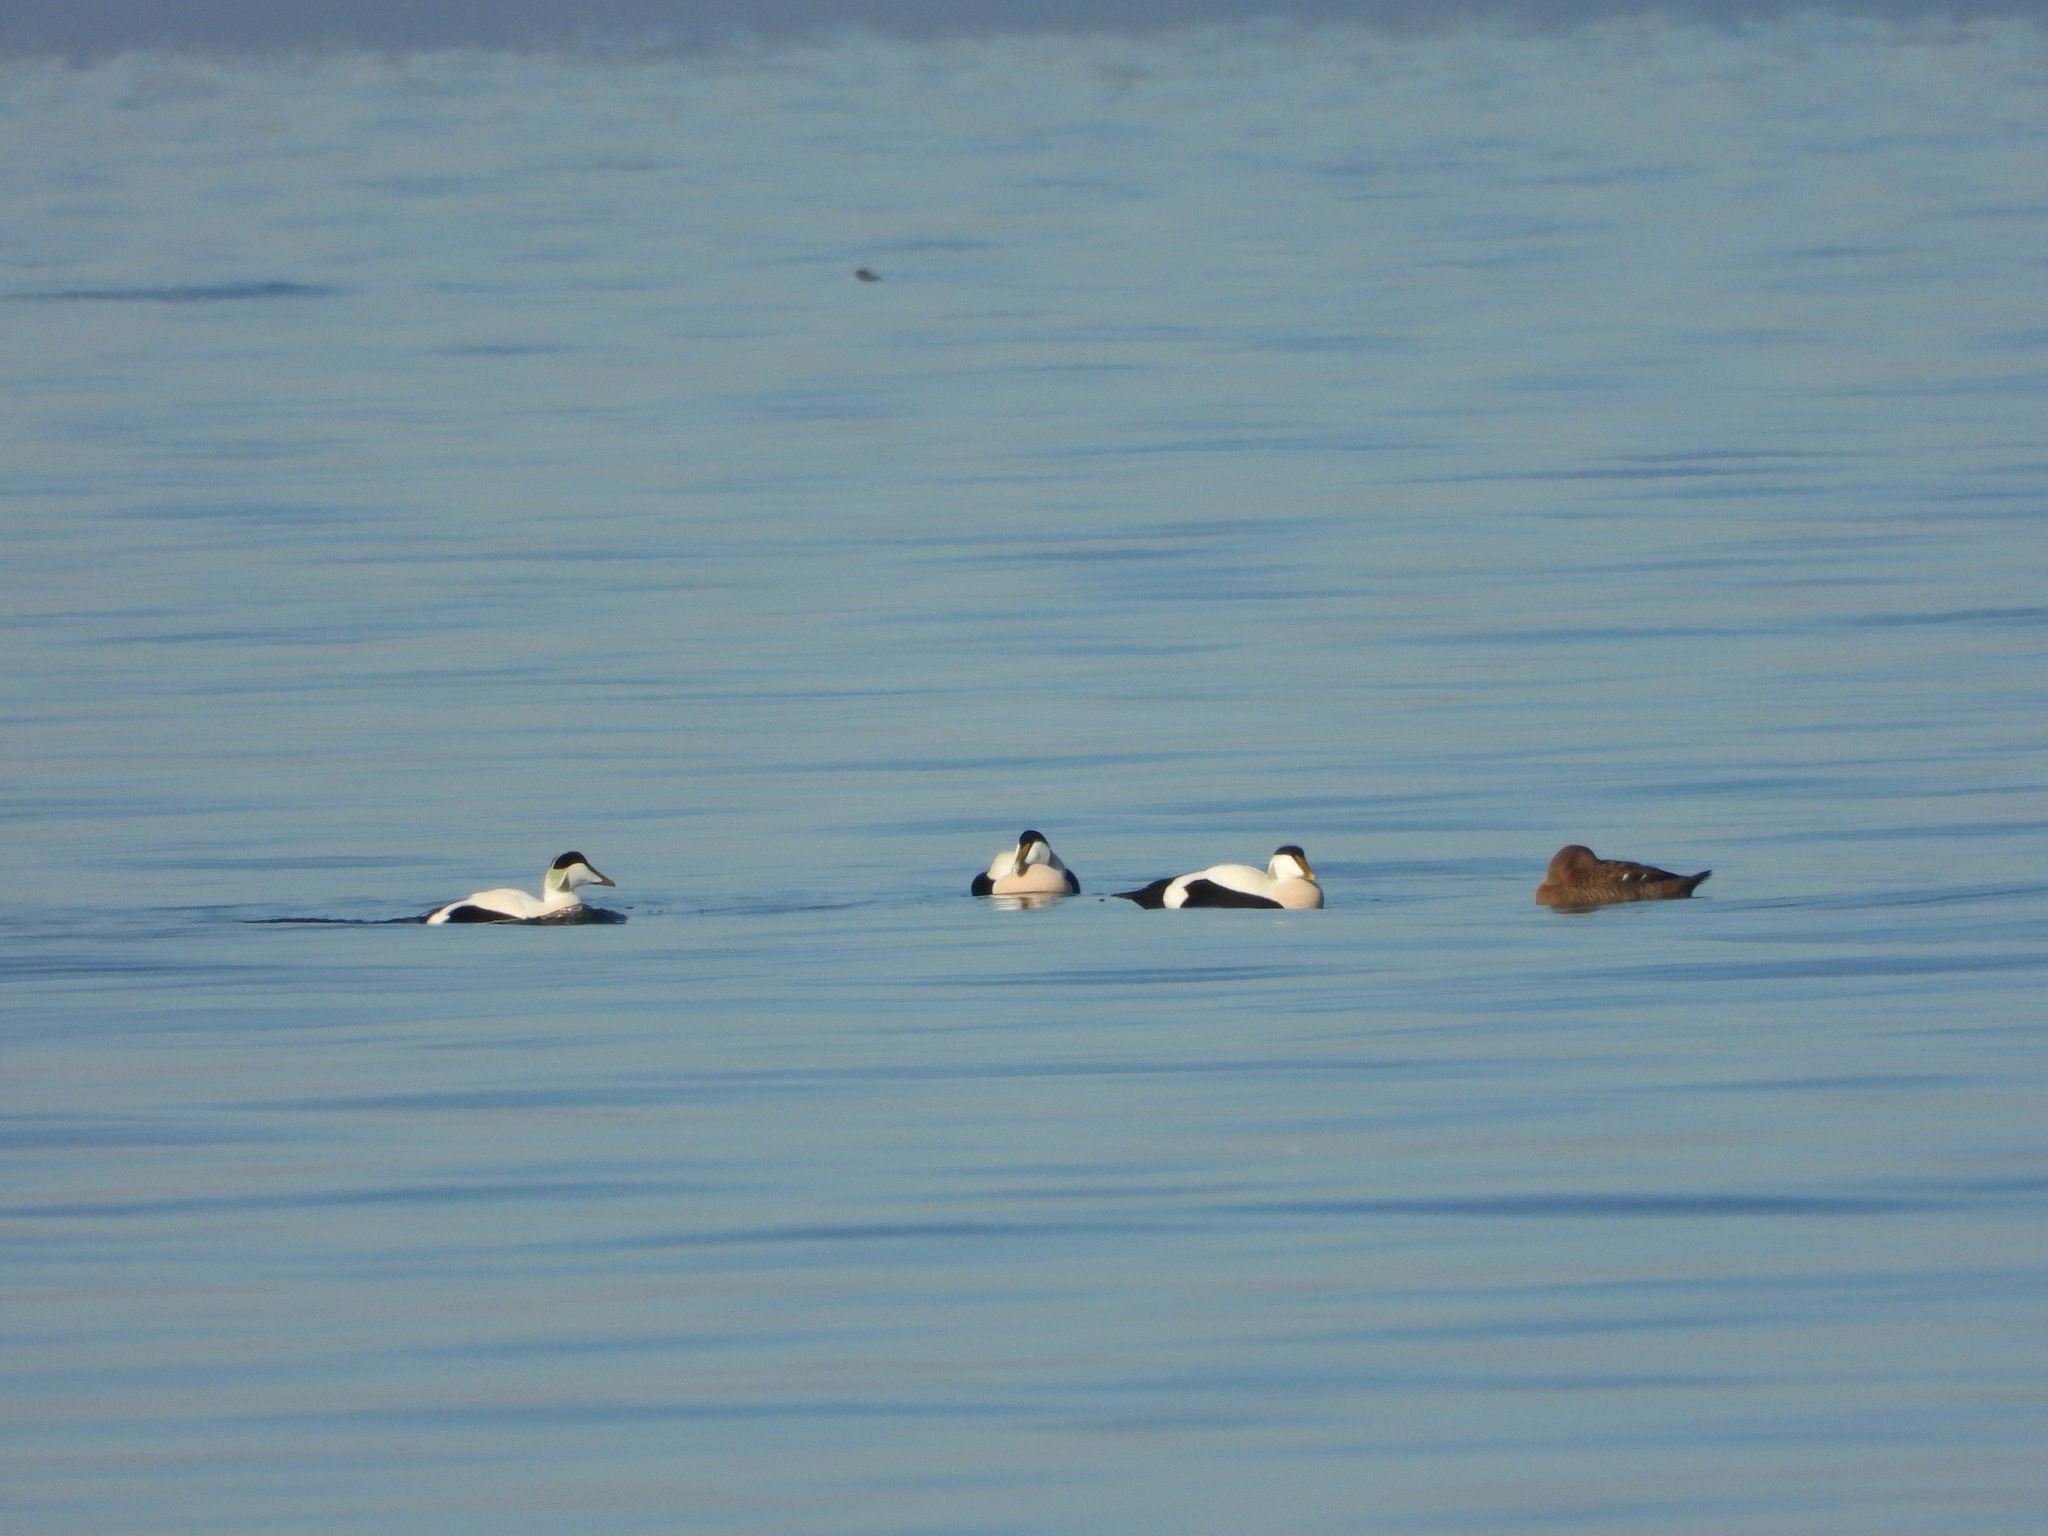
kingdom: Animalia
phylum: Chordata
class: Aves
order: Anseriformes
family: Anatidae
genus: Somateria
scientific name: Somateria mollissima
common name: Common eider
